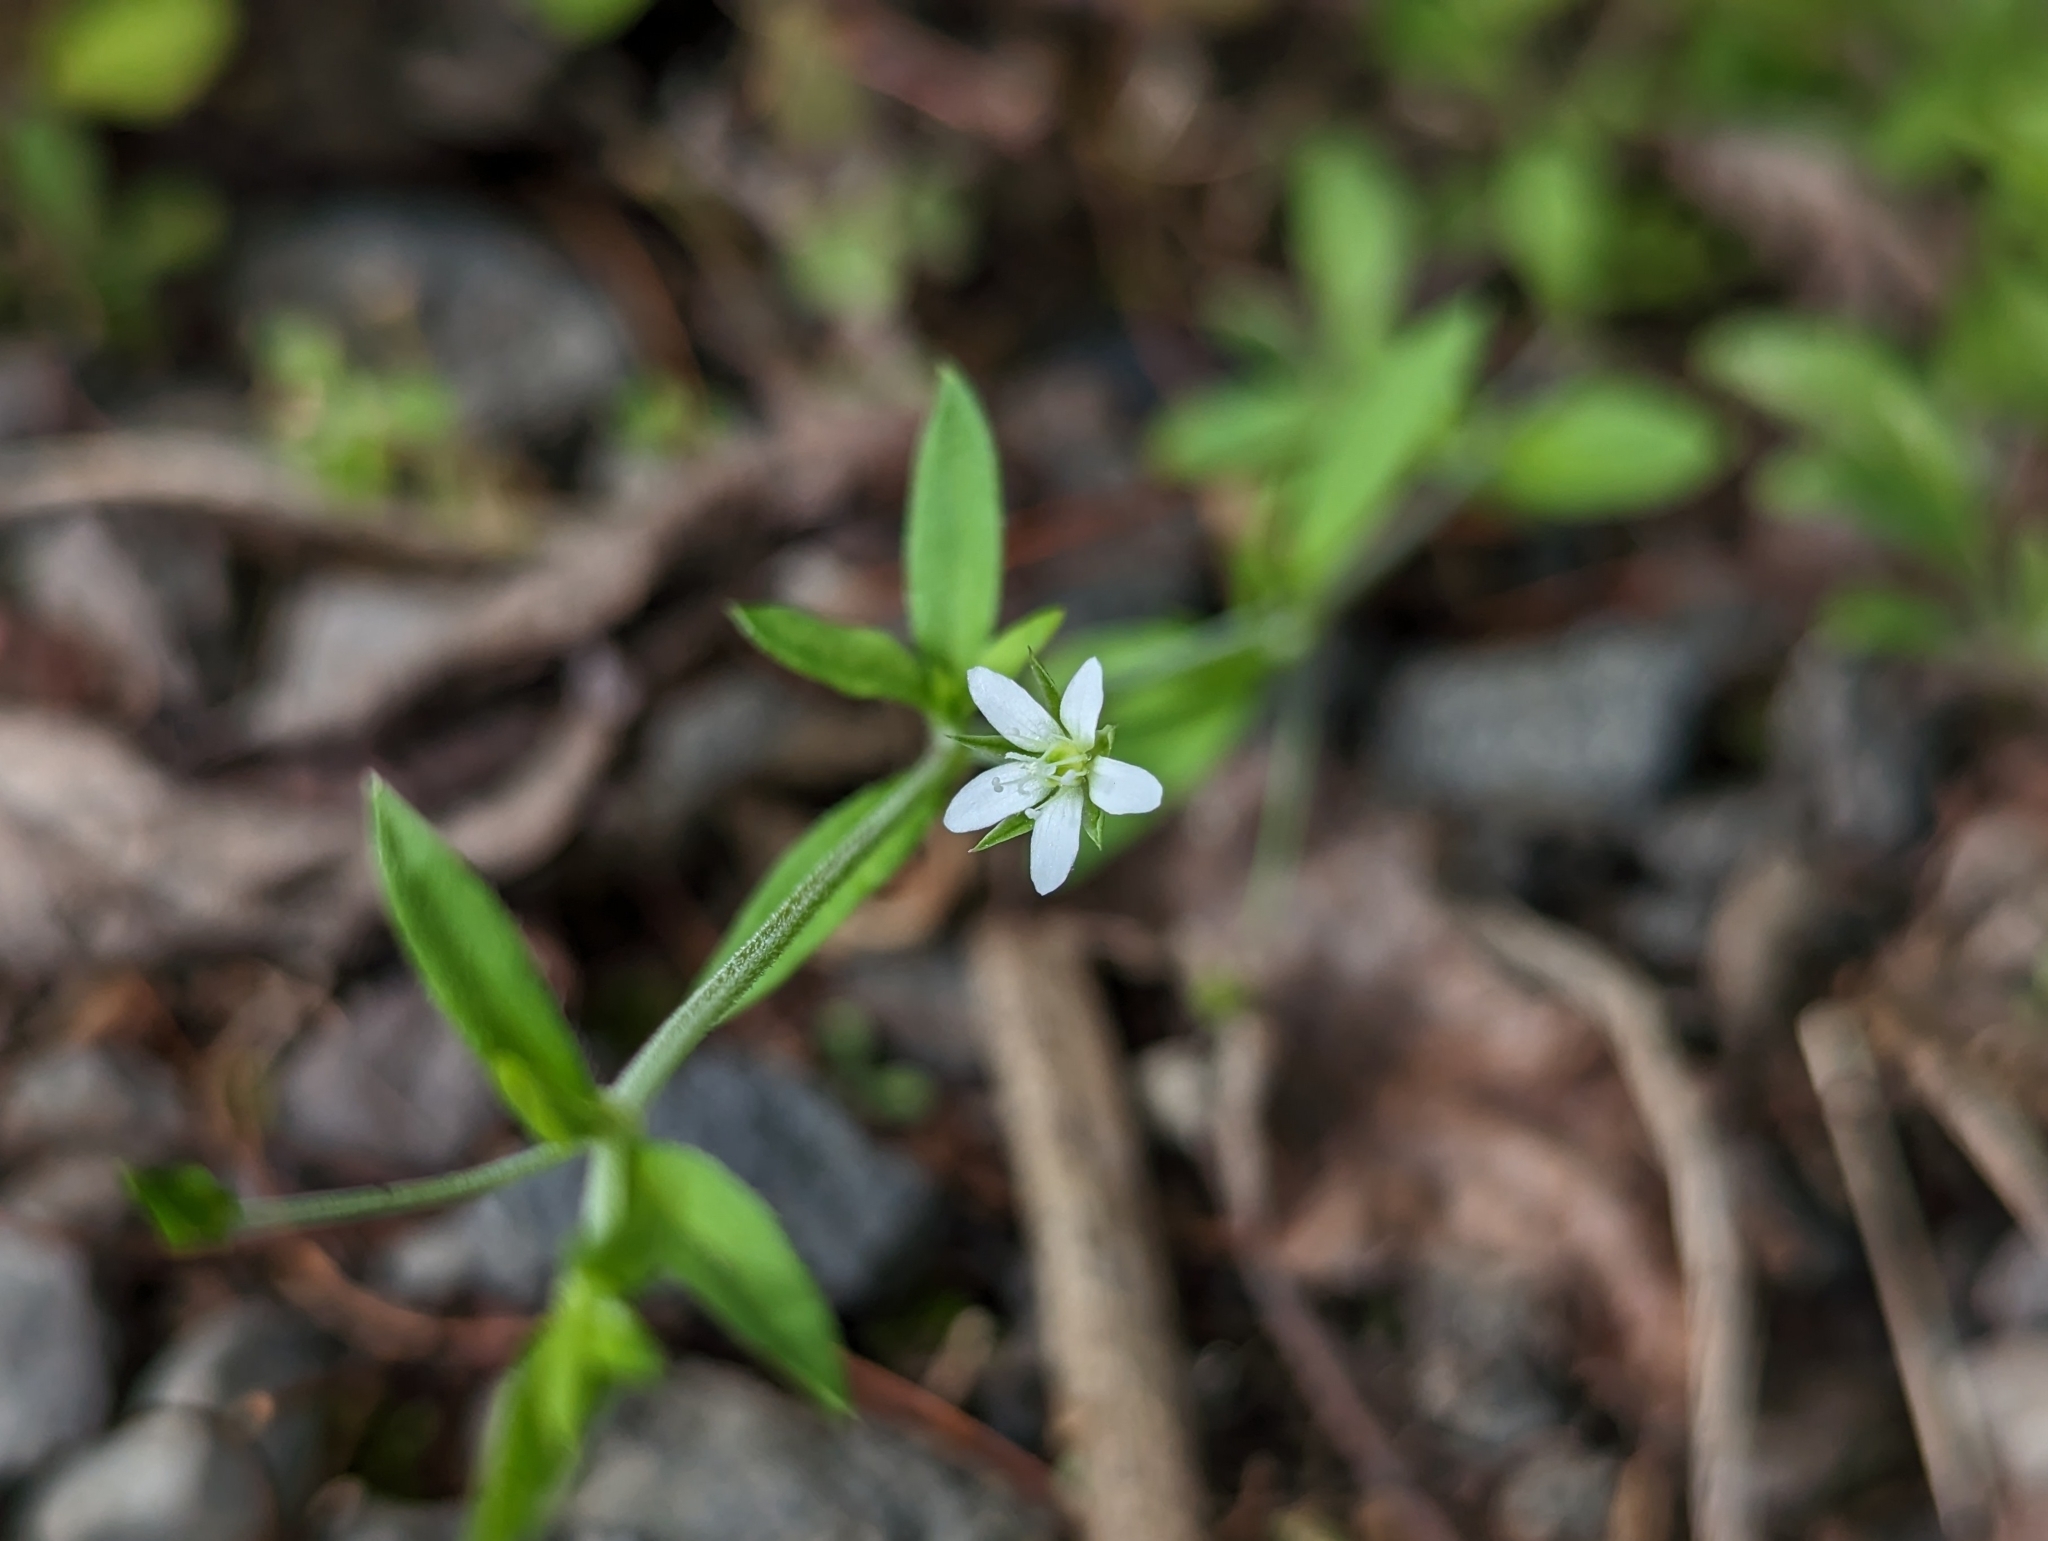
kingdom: Plantae
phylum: Tracheophyta
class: Magnoliopsida
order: Caryophyllales
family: Caryophyllaceae
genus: Arenaria
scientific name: Arenaria lanuginosa
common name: Spread sandwort
